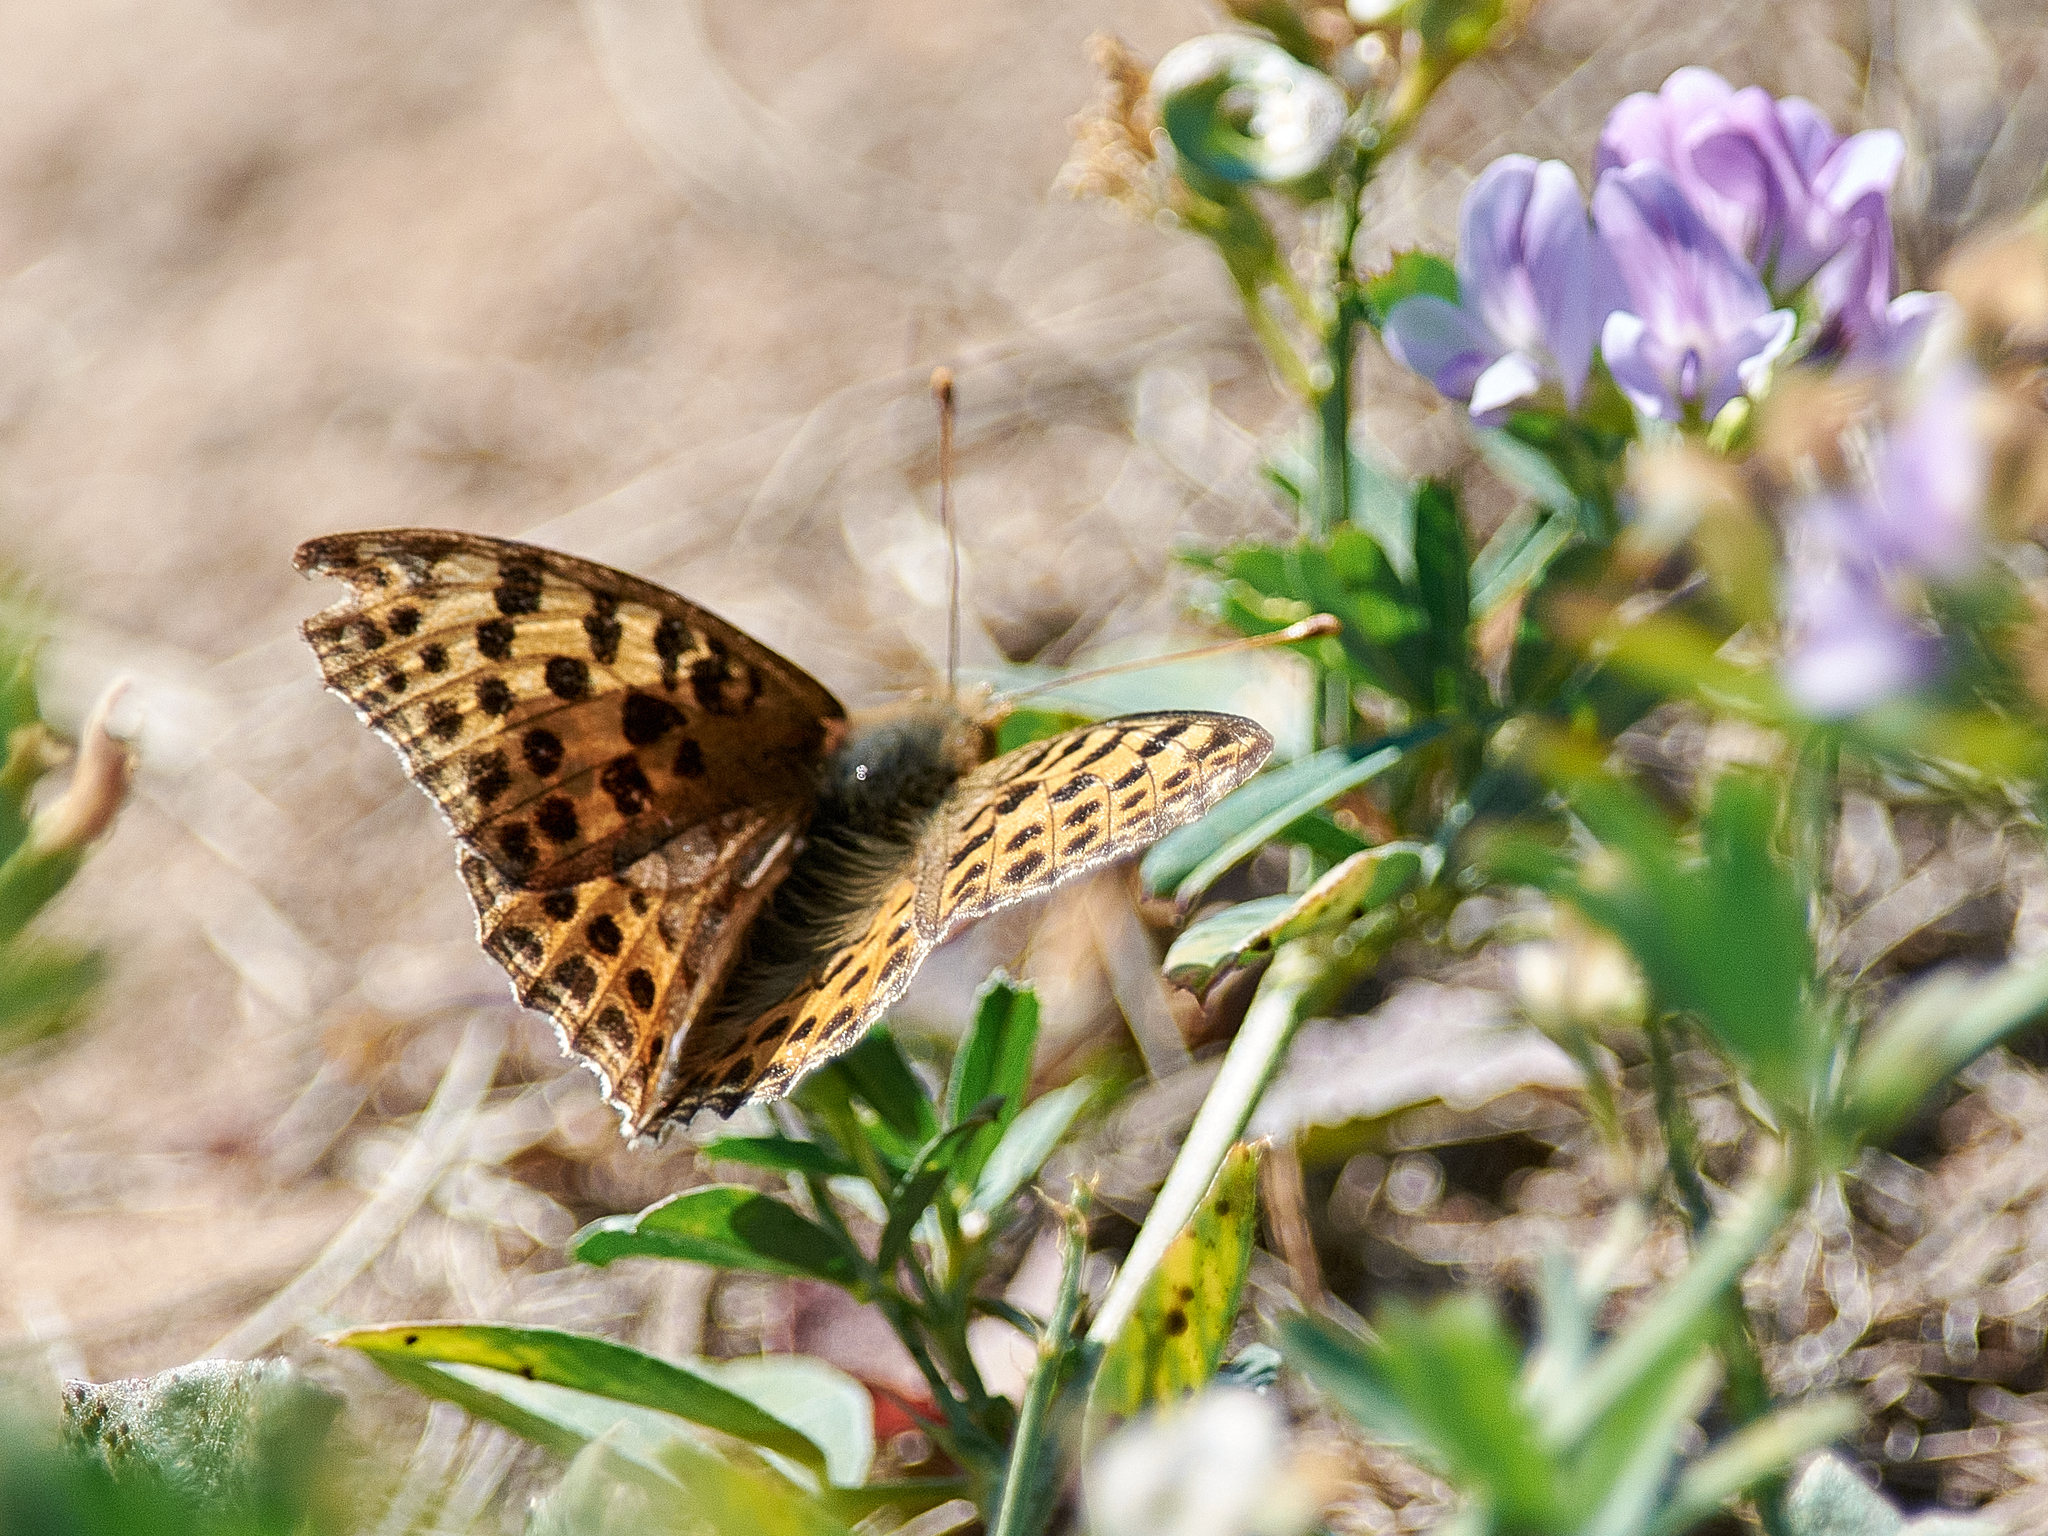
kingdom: Animalia
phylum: Arthropoda
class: Insecta
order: Lepidoptera
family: Nymphalidae
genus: Issoria
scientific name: Issoria lathonia
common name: Queen of spain fritillary
